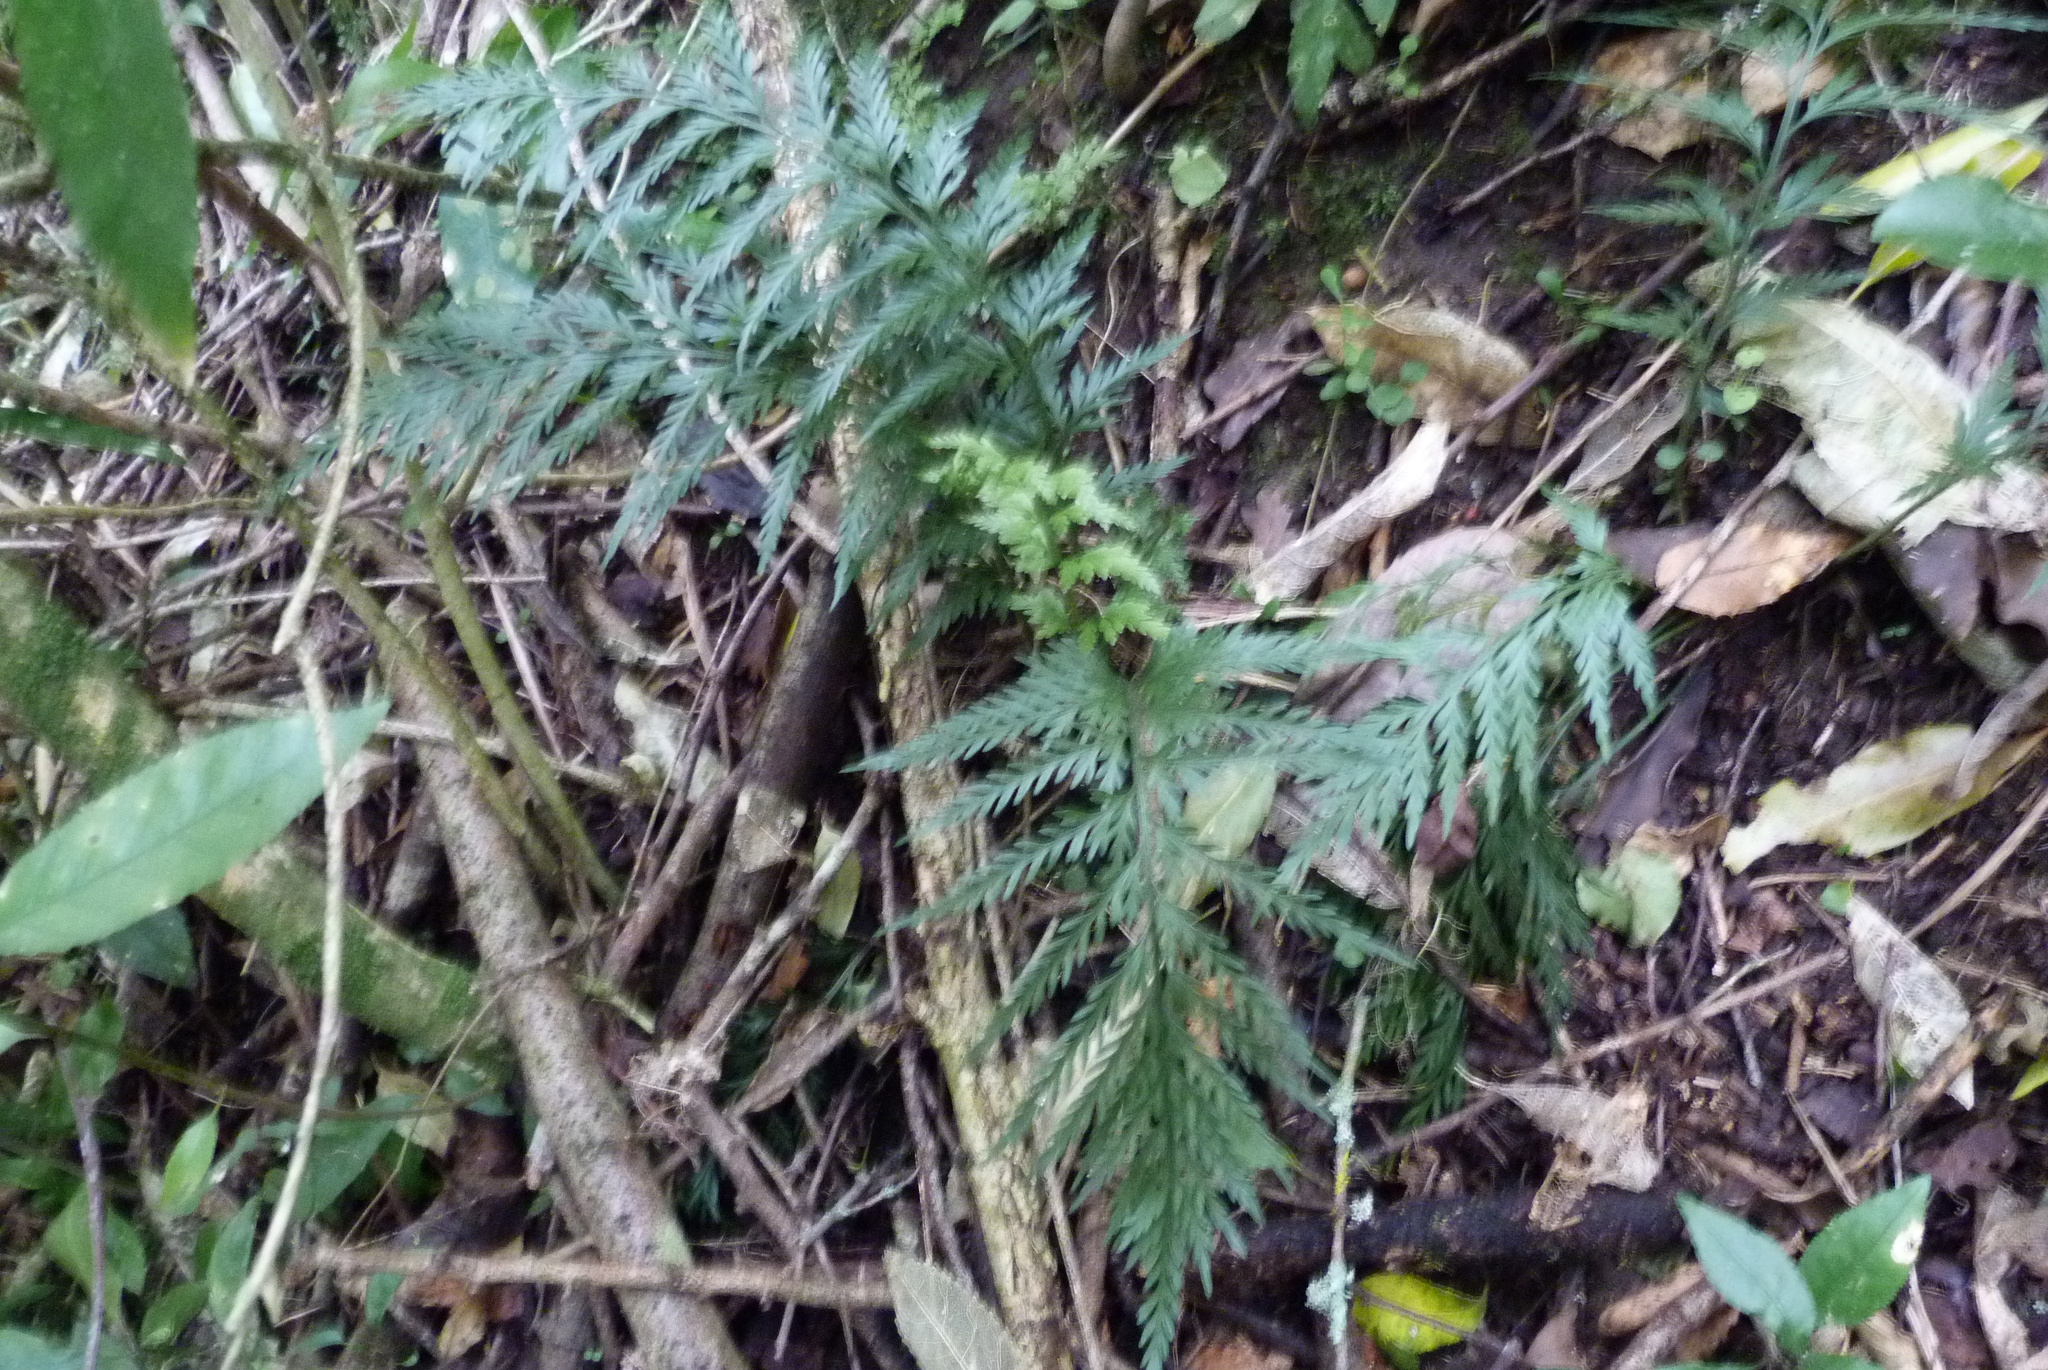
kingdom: Plantae
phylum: Tracheophyta
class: Polypodiopsida
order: Polypodiales
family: Aspleniaceae
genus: Asplenium
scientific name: Asplenium appendiculatum
